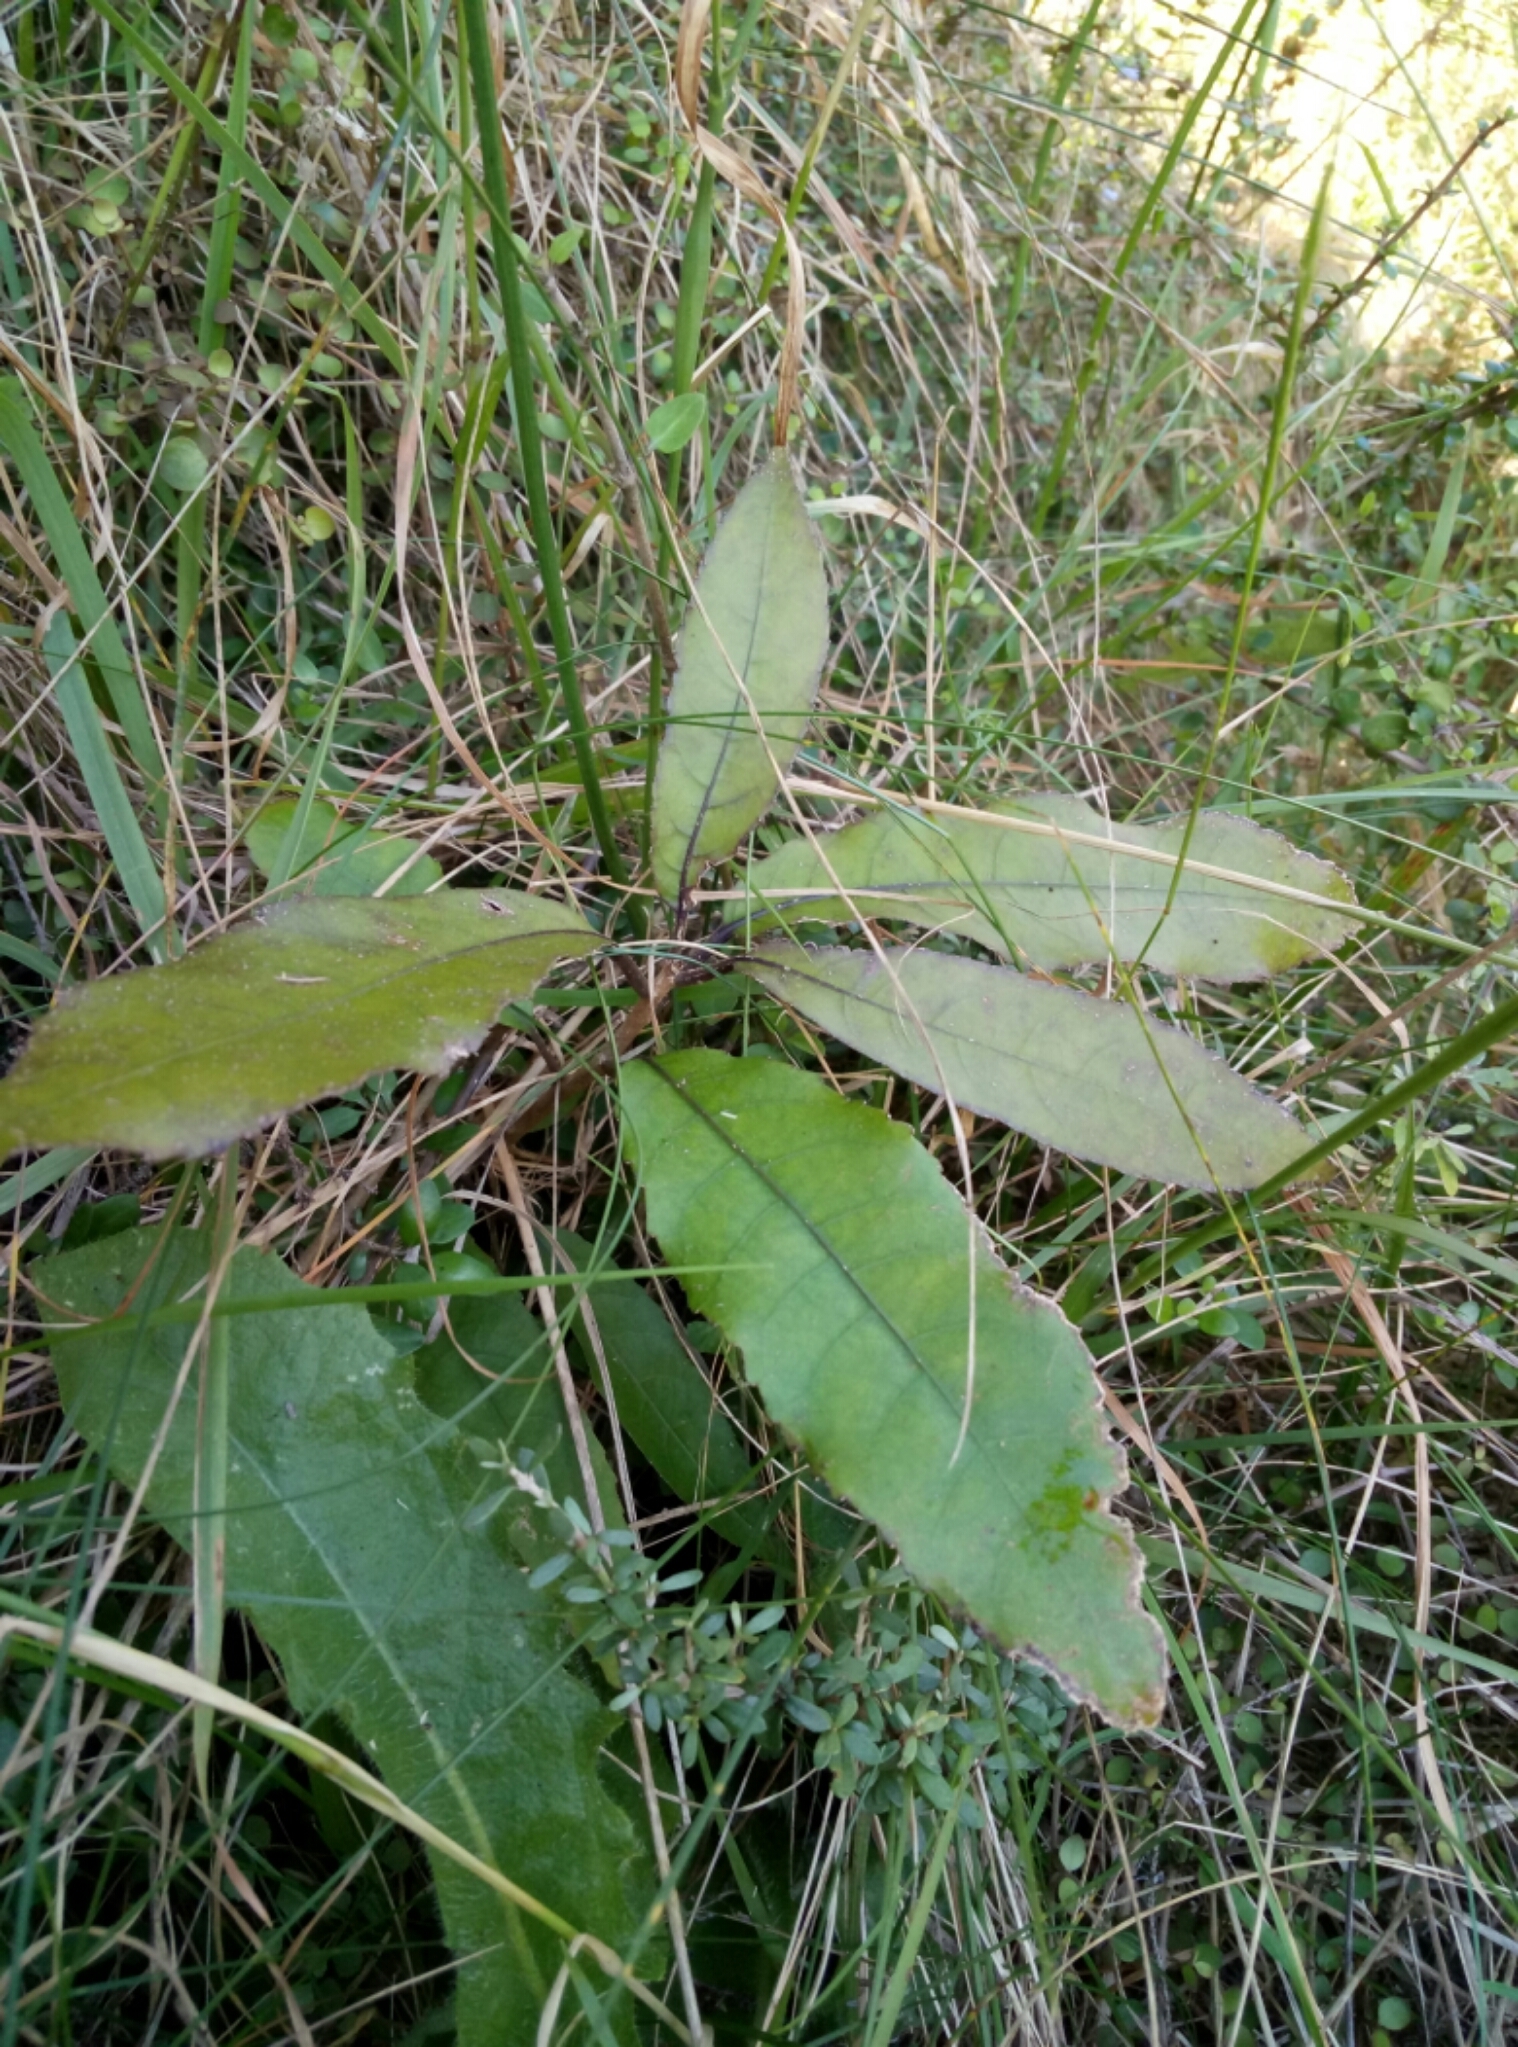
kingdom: Plantae
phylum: Tracheophyta
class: Magnoliopsida
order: Malpighiales
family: Violaceae
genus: Melicytus
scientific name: Melicytus ramiflorus
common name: Mahoe
